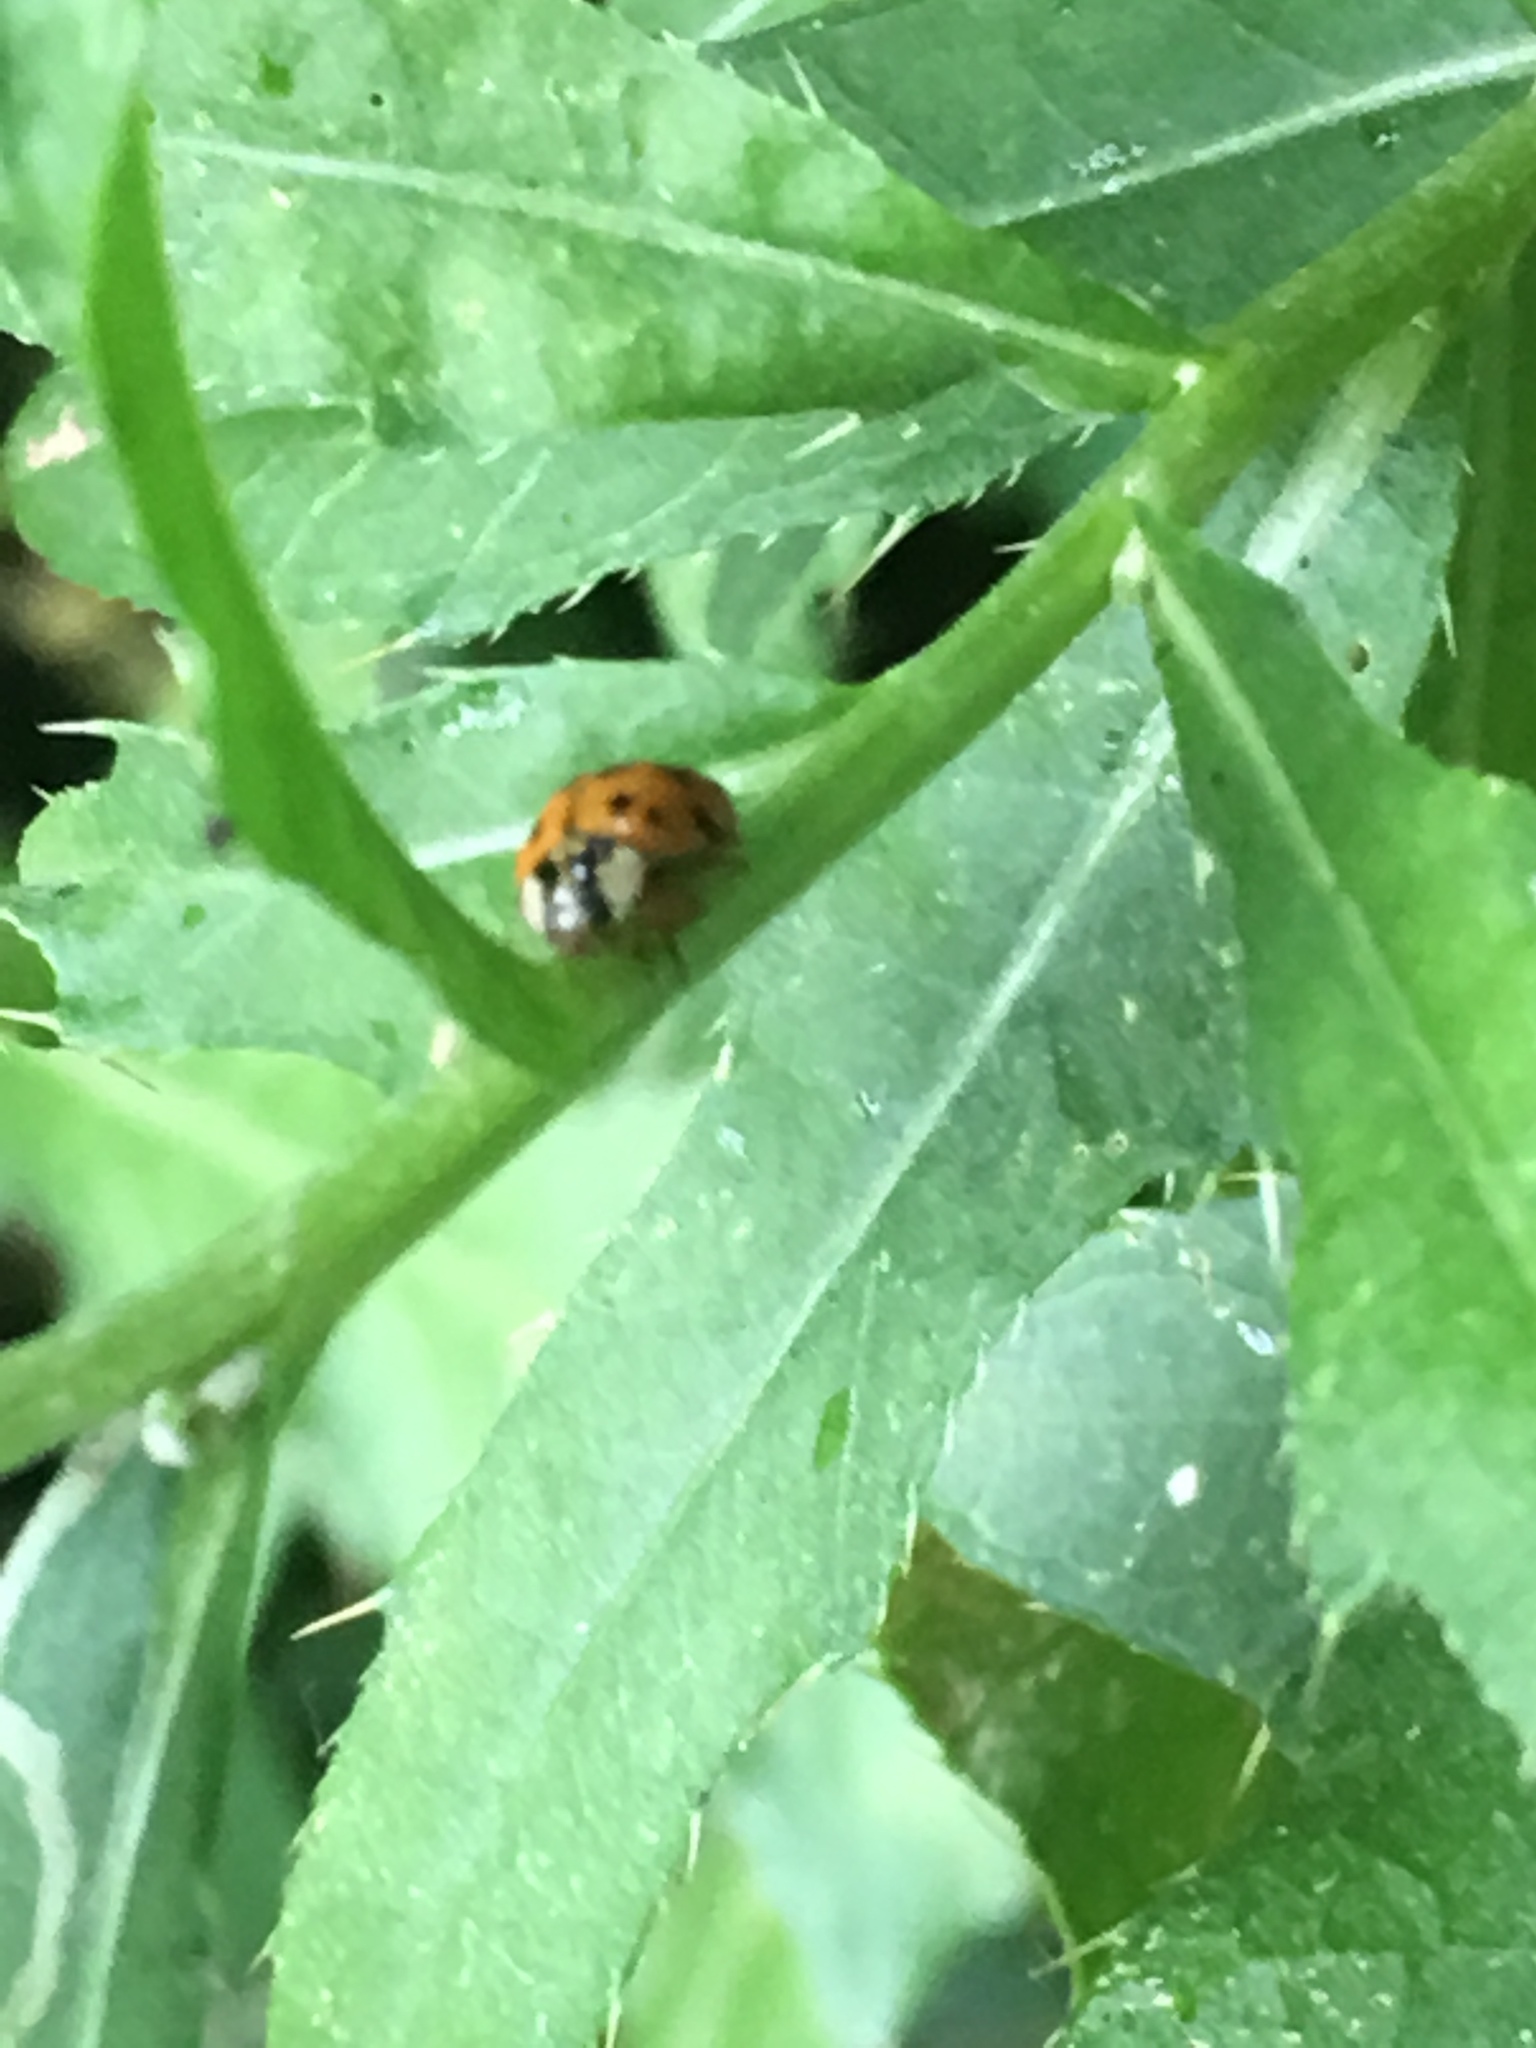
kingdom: Animalia
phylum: Arthropoda
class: Insecta
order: Coleoptera
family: Coccinellidae
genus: Harmonia
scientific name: Harmonia axyridis
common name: Harlequin ladybird
